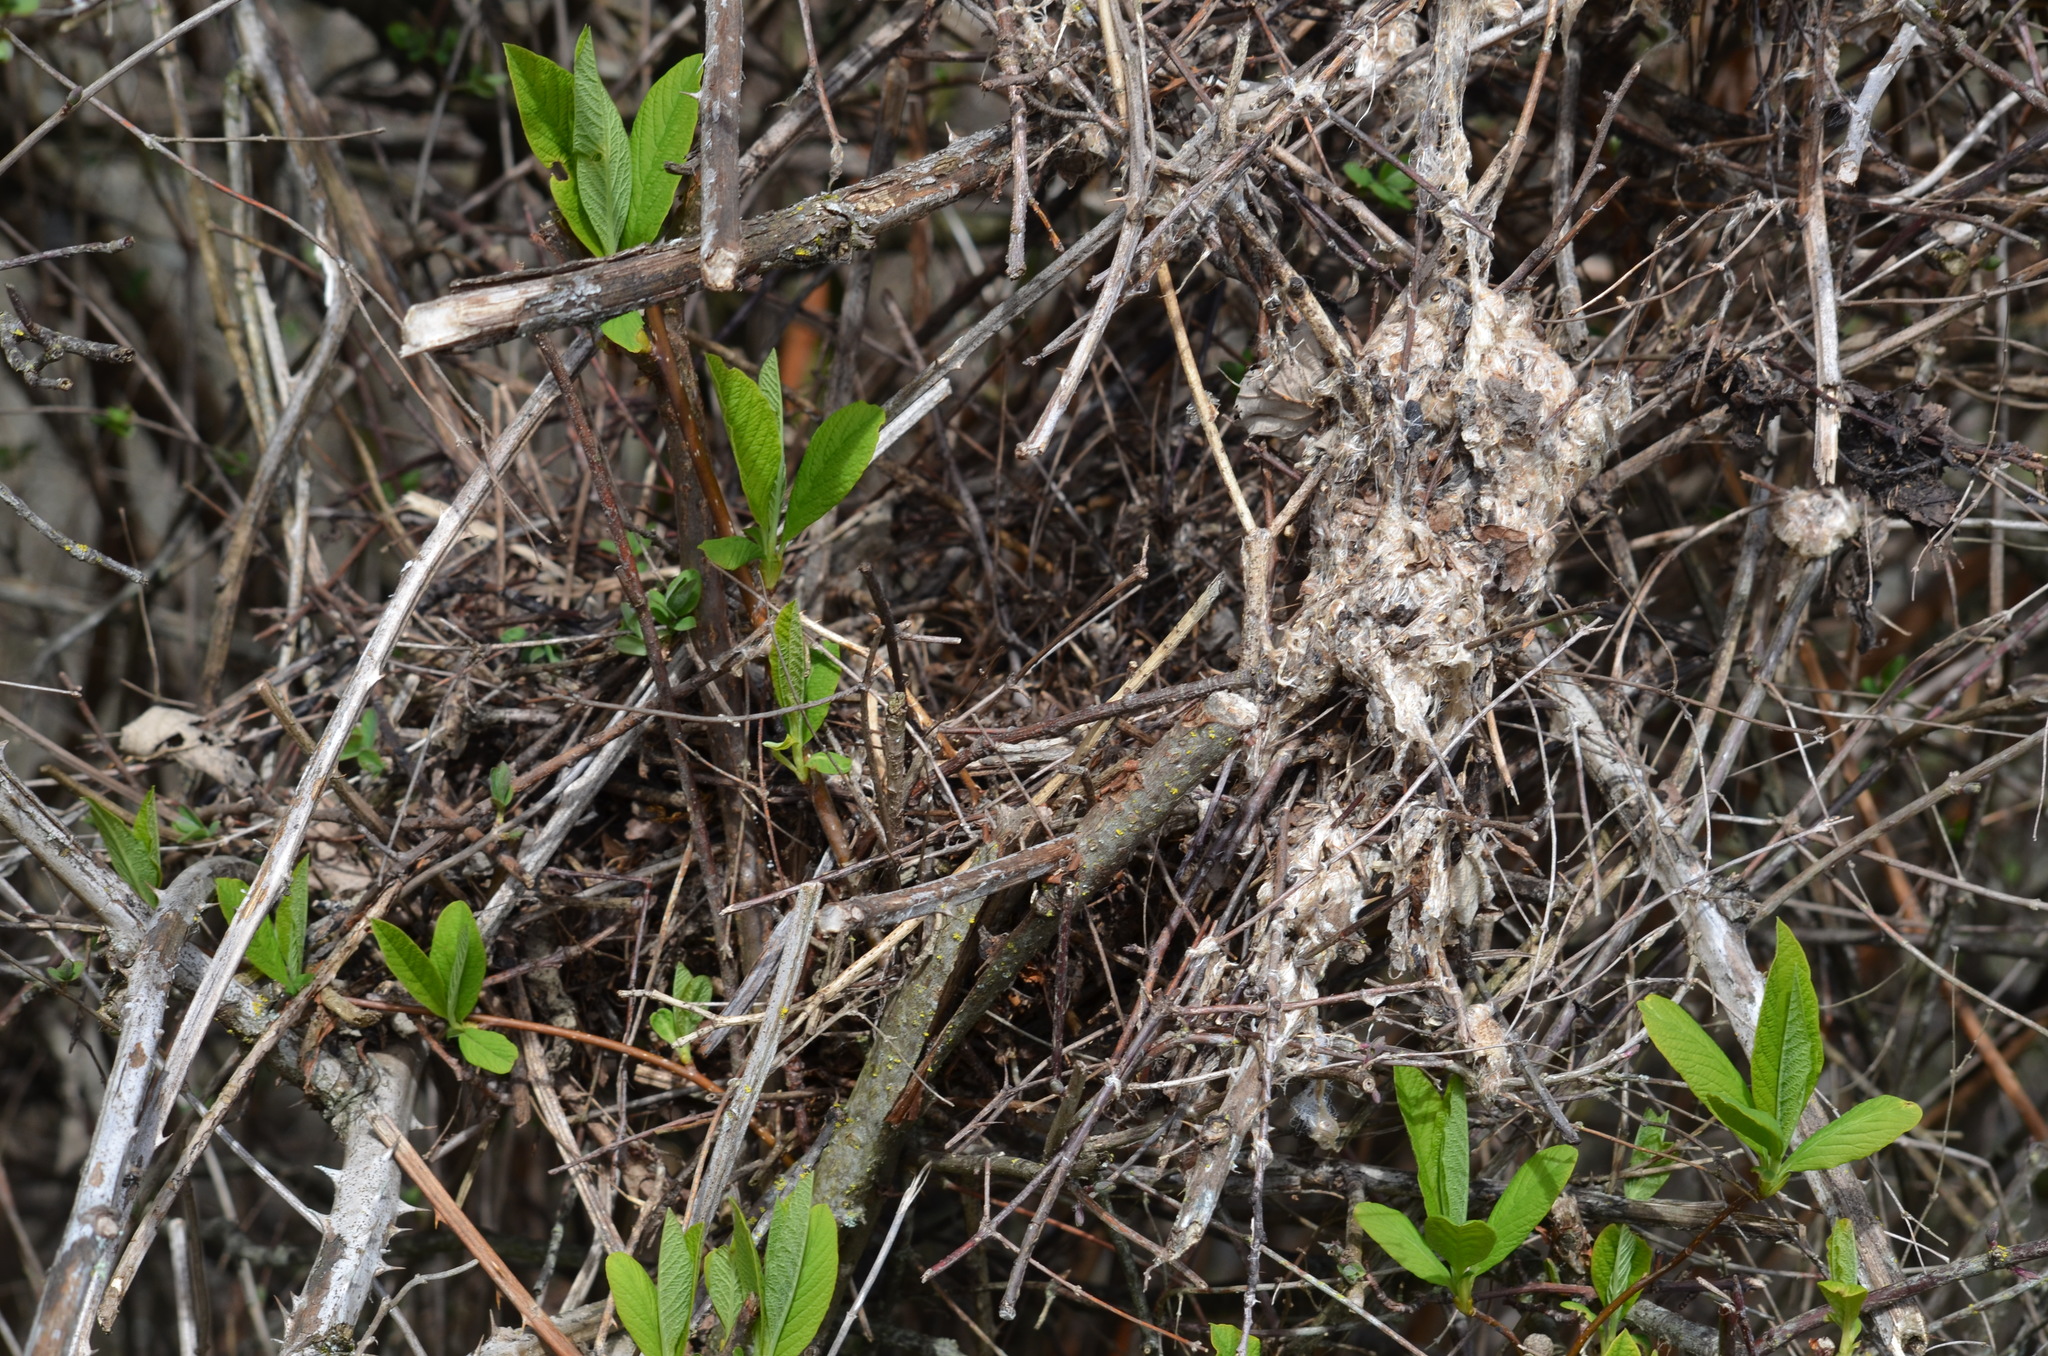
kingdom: Plantae
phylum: Tracheophyta
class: Magnoliopsida
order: Rosales
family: Rosaceae
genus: Oemleria
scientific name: Oemleria cerasiformis
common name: Osoberry
